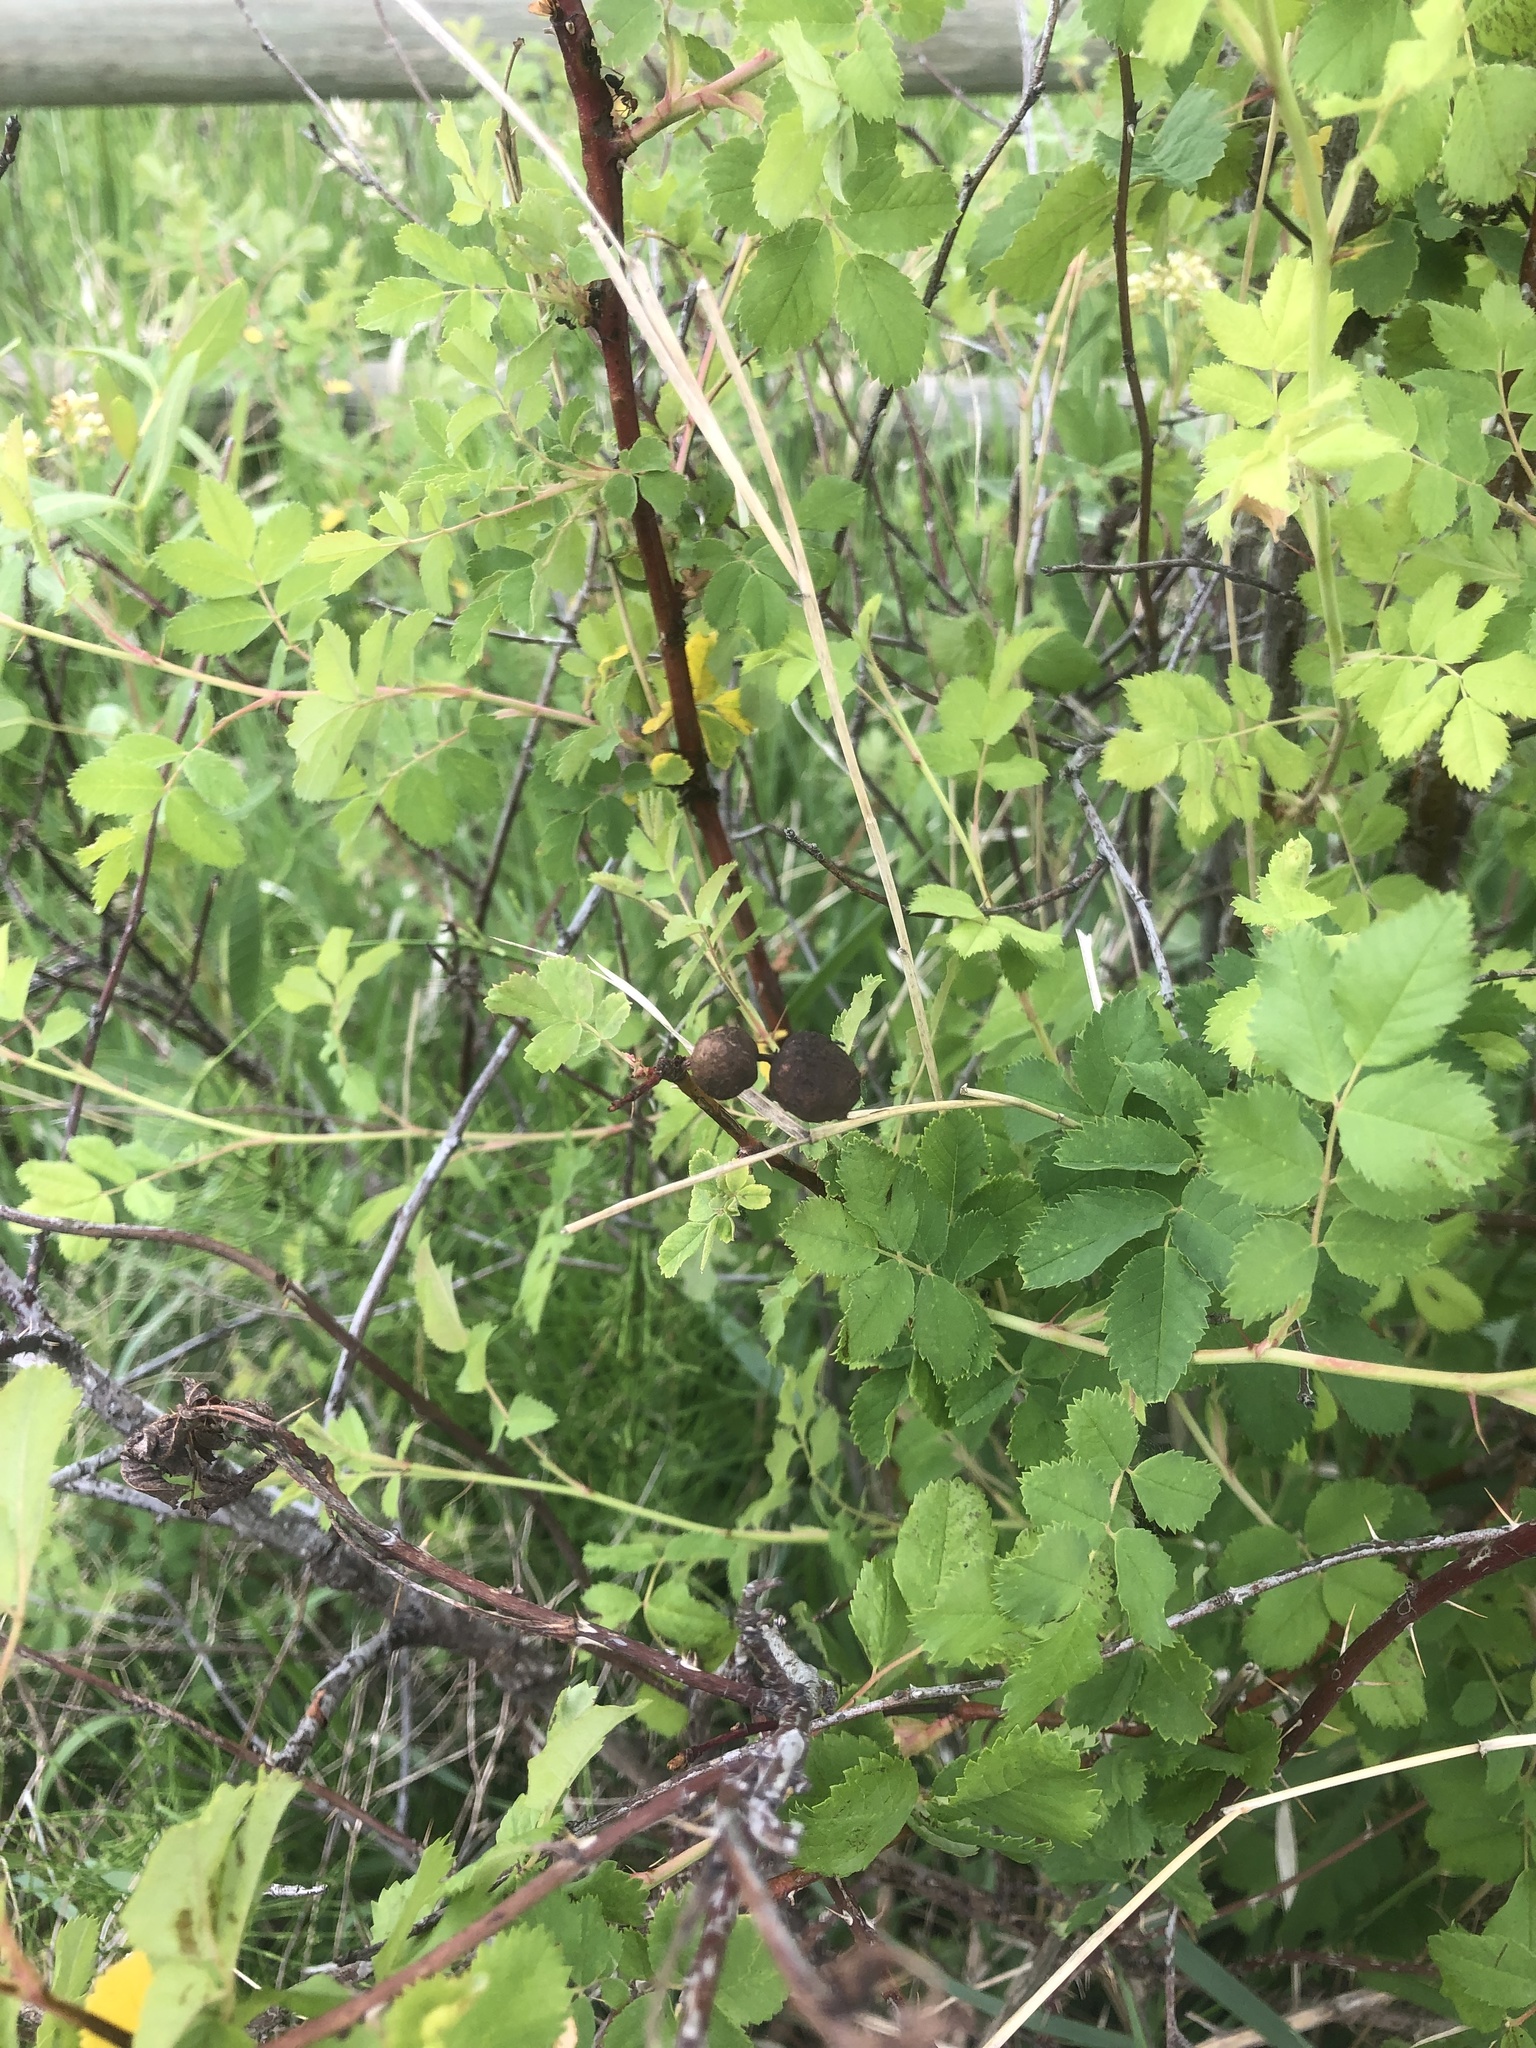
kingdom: Animalia
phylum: Arthropoda
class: Insecta
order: Hymenoptera
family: Cynipidae
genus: Diplolepis
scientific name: Diplolepis variabilis
